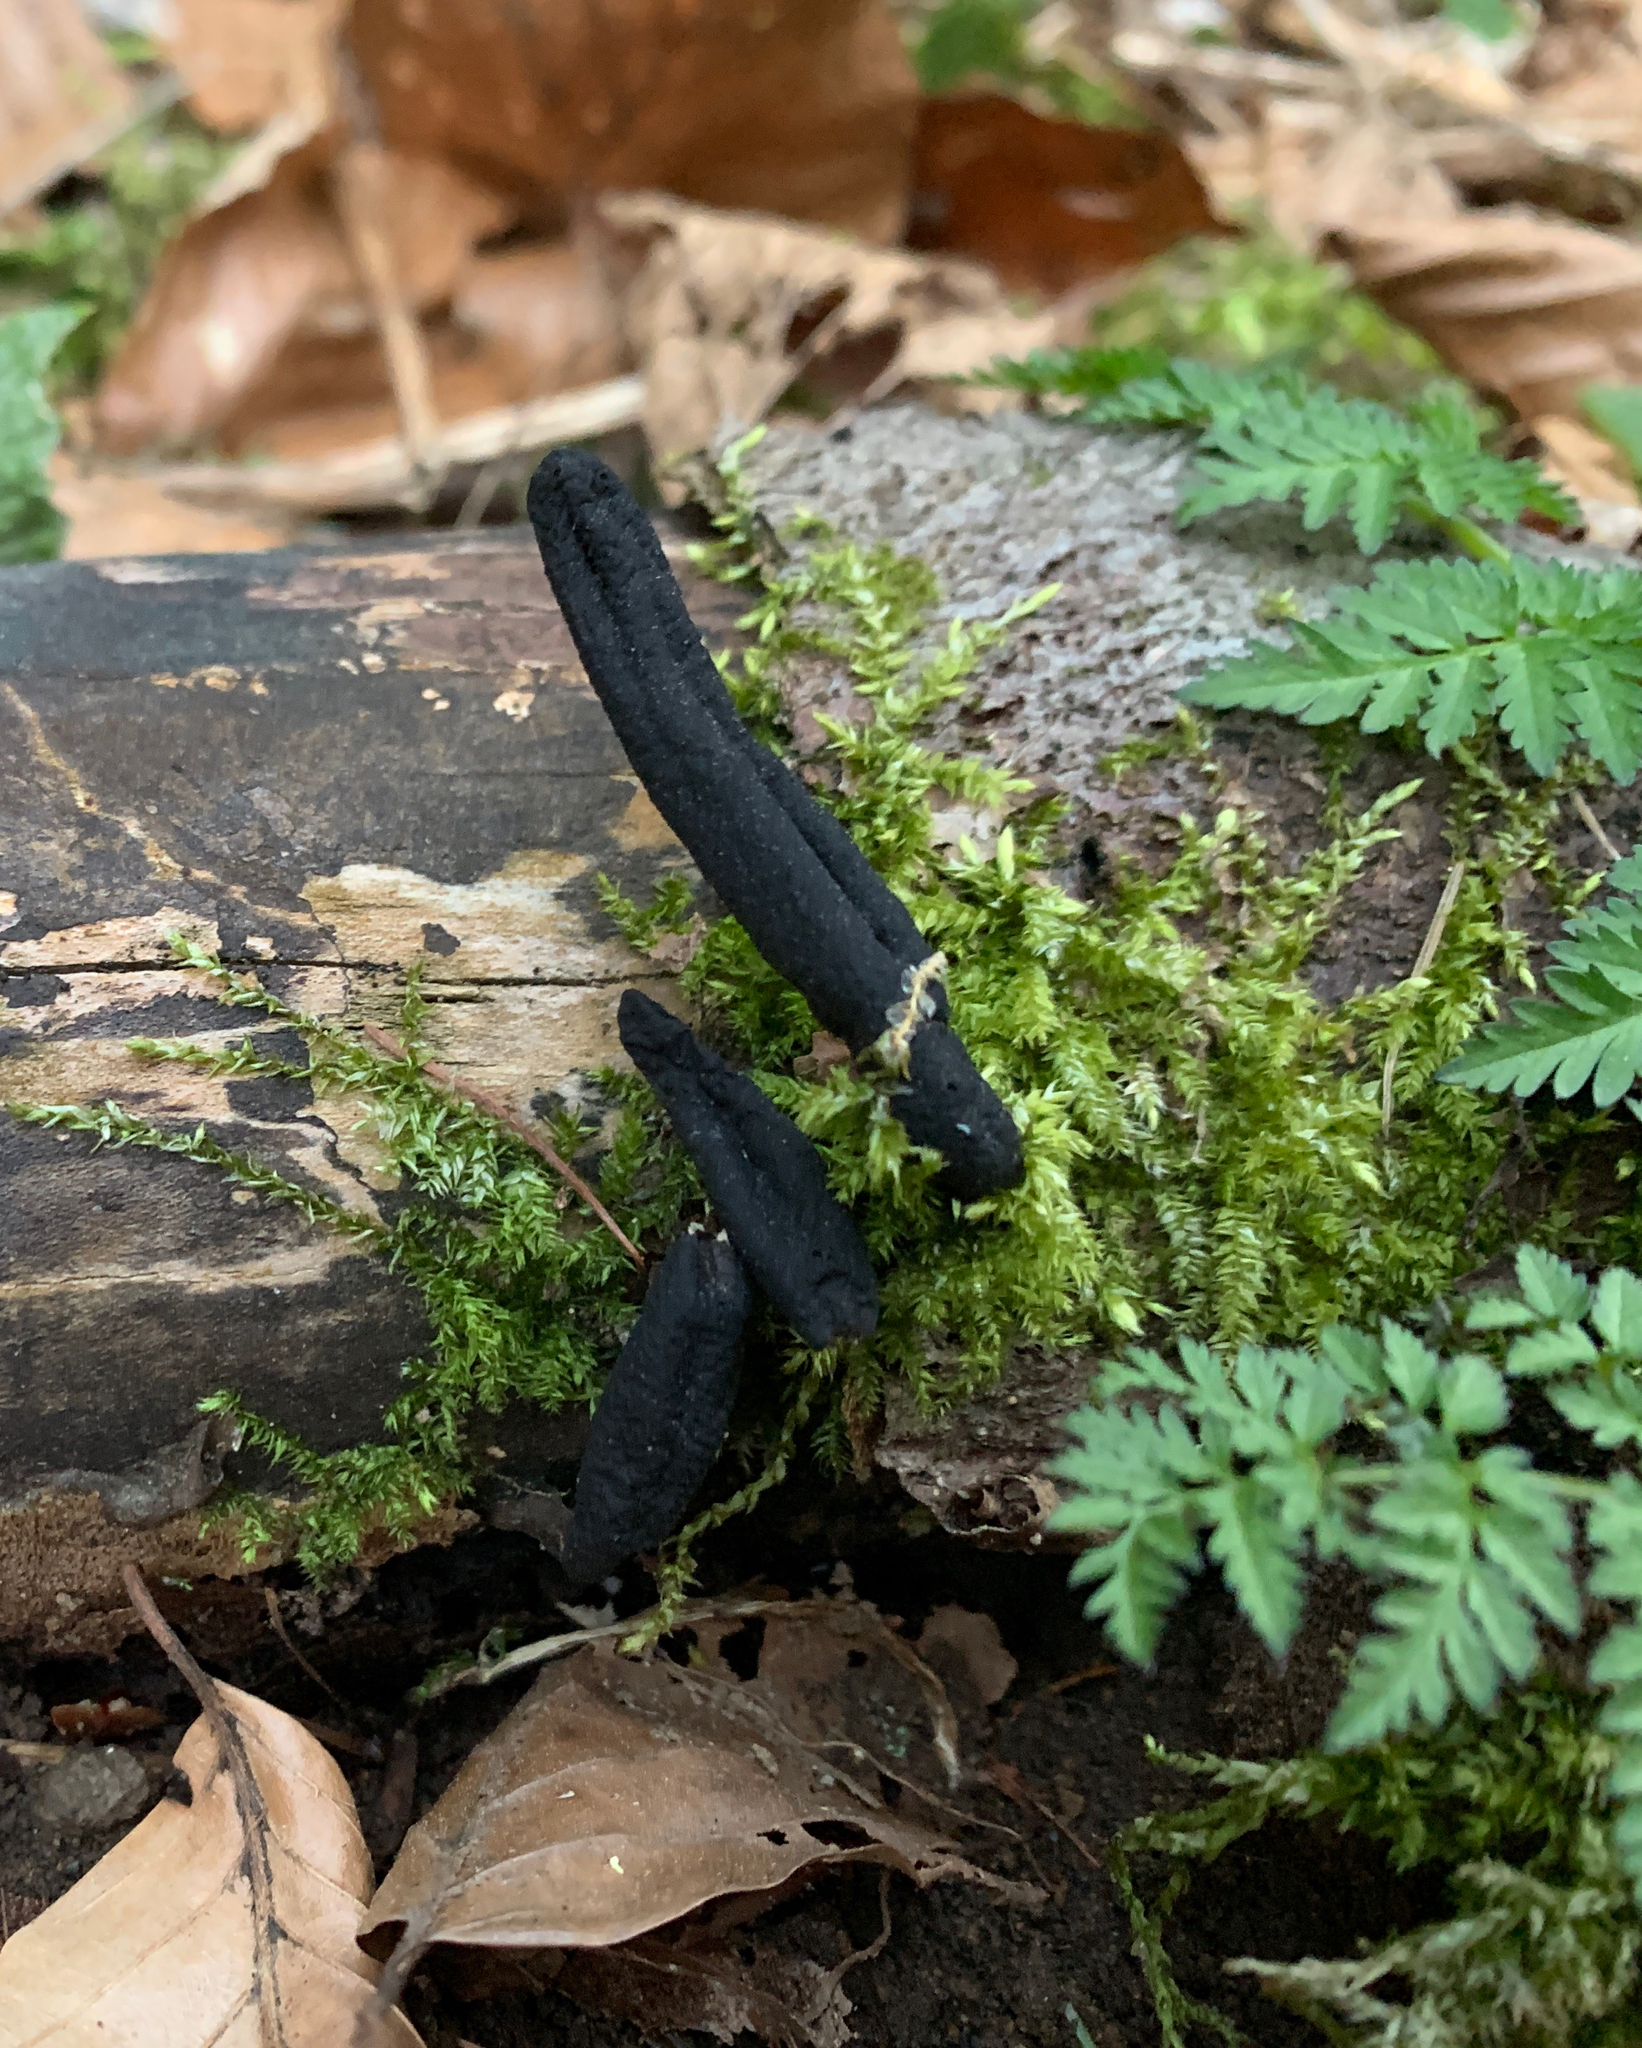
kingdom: Fungi
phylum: Ascomycota
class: Sordariomycetes
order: Xylariales
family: Xylariaceae
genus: Xylaria
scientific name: Xylaria longipes
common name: Dead moll's fingers
